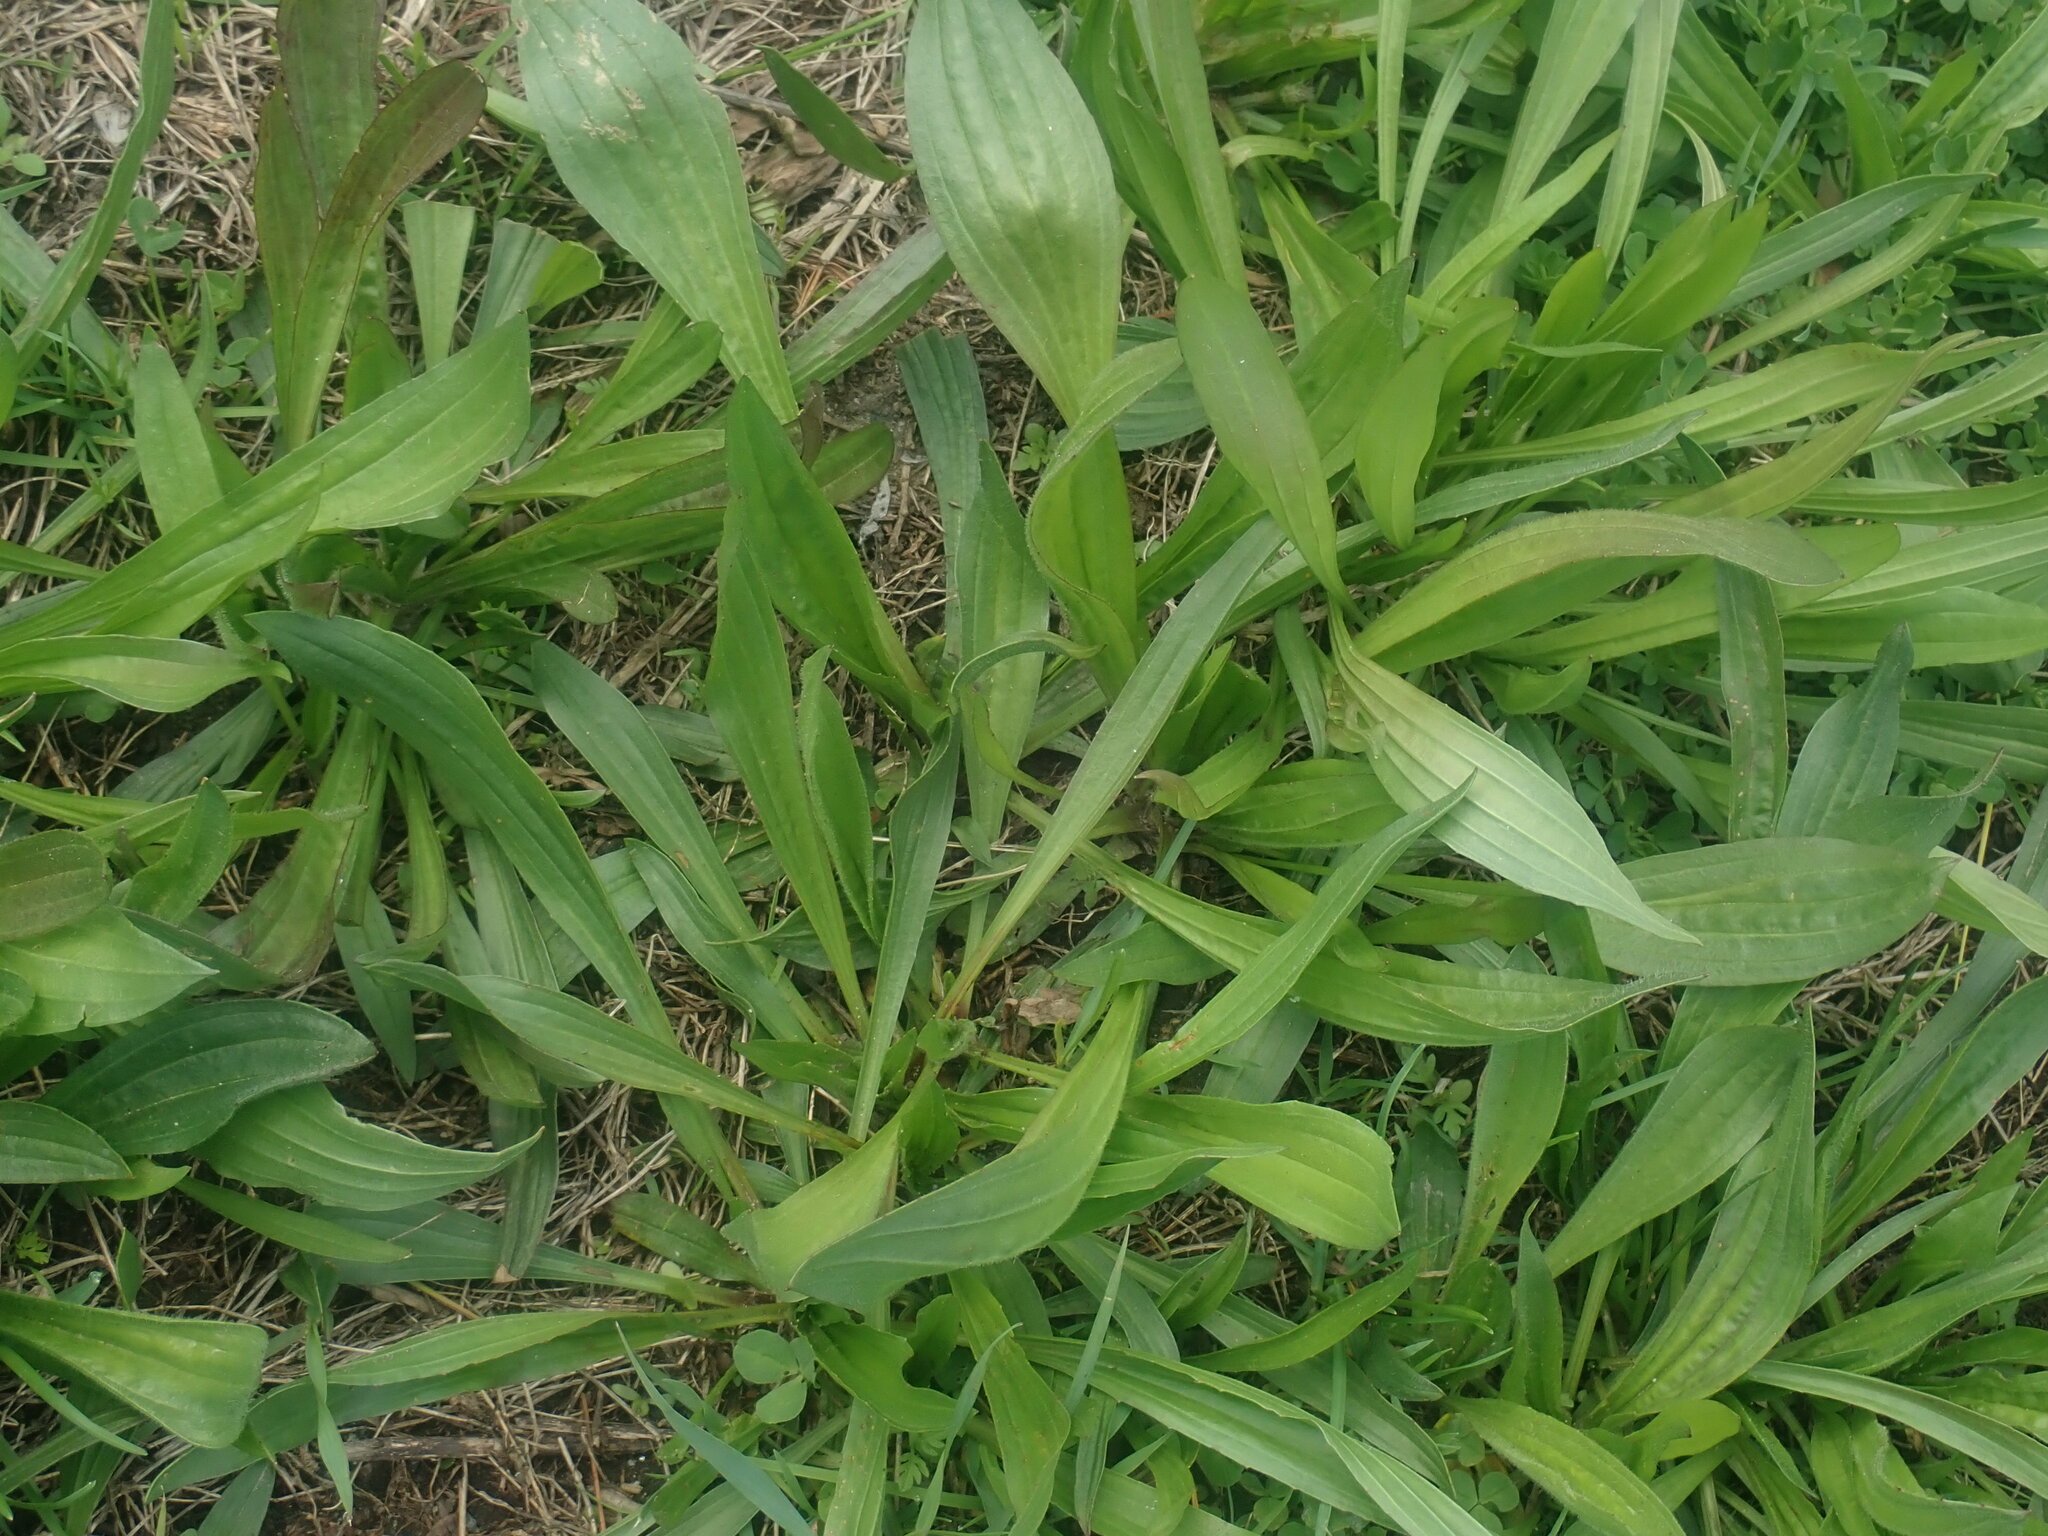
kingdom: Plantae
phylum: Tracheophyta
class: Magnoliopsida
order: Lamiales
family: Plantaginaceae
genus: Plantago
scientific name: Plantago lanceolata
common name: Ribwort plantain
